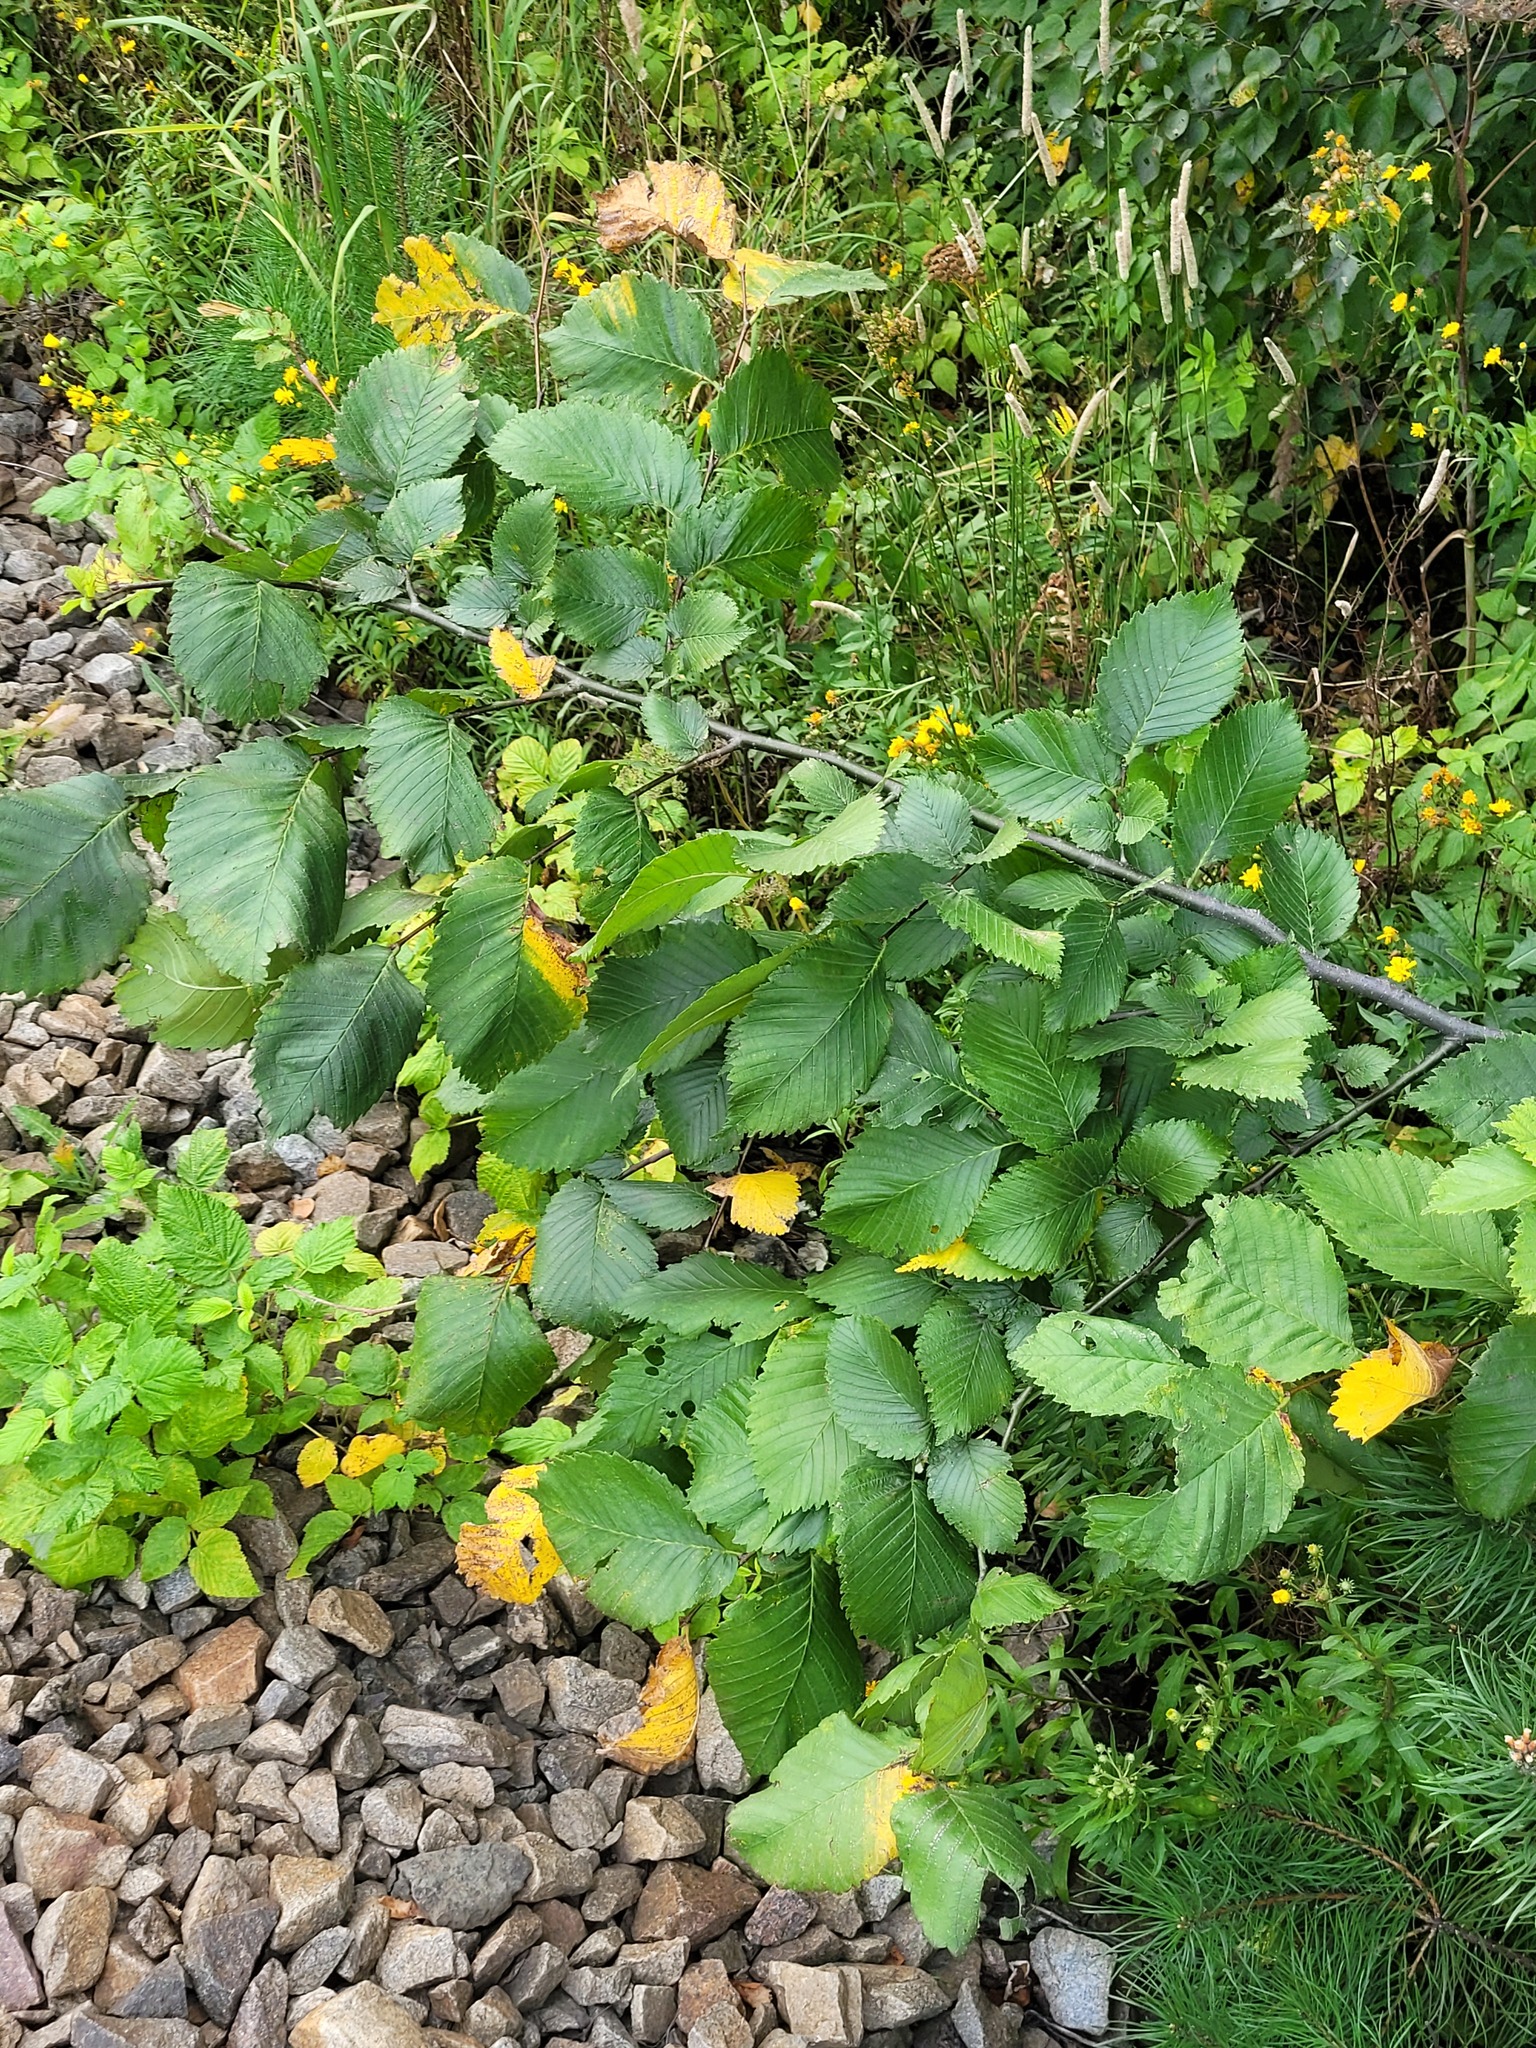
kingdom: Plantae
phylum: Tracheophyta
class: Magnoliopsida
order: Rosales
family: Ulmaceae
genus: Ulmus
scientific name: Ulmus laevis
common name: European white-elm
